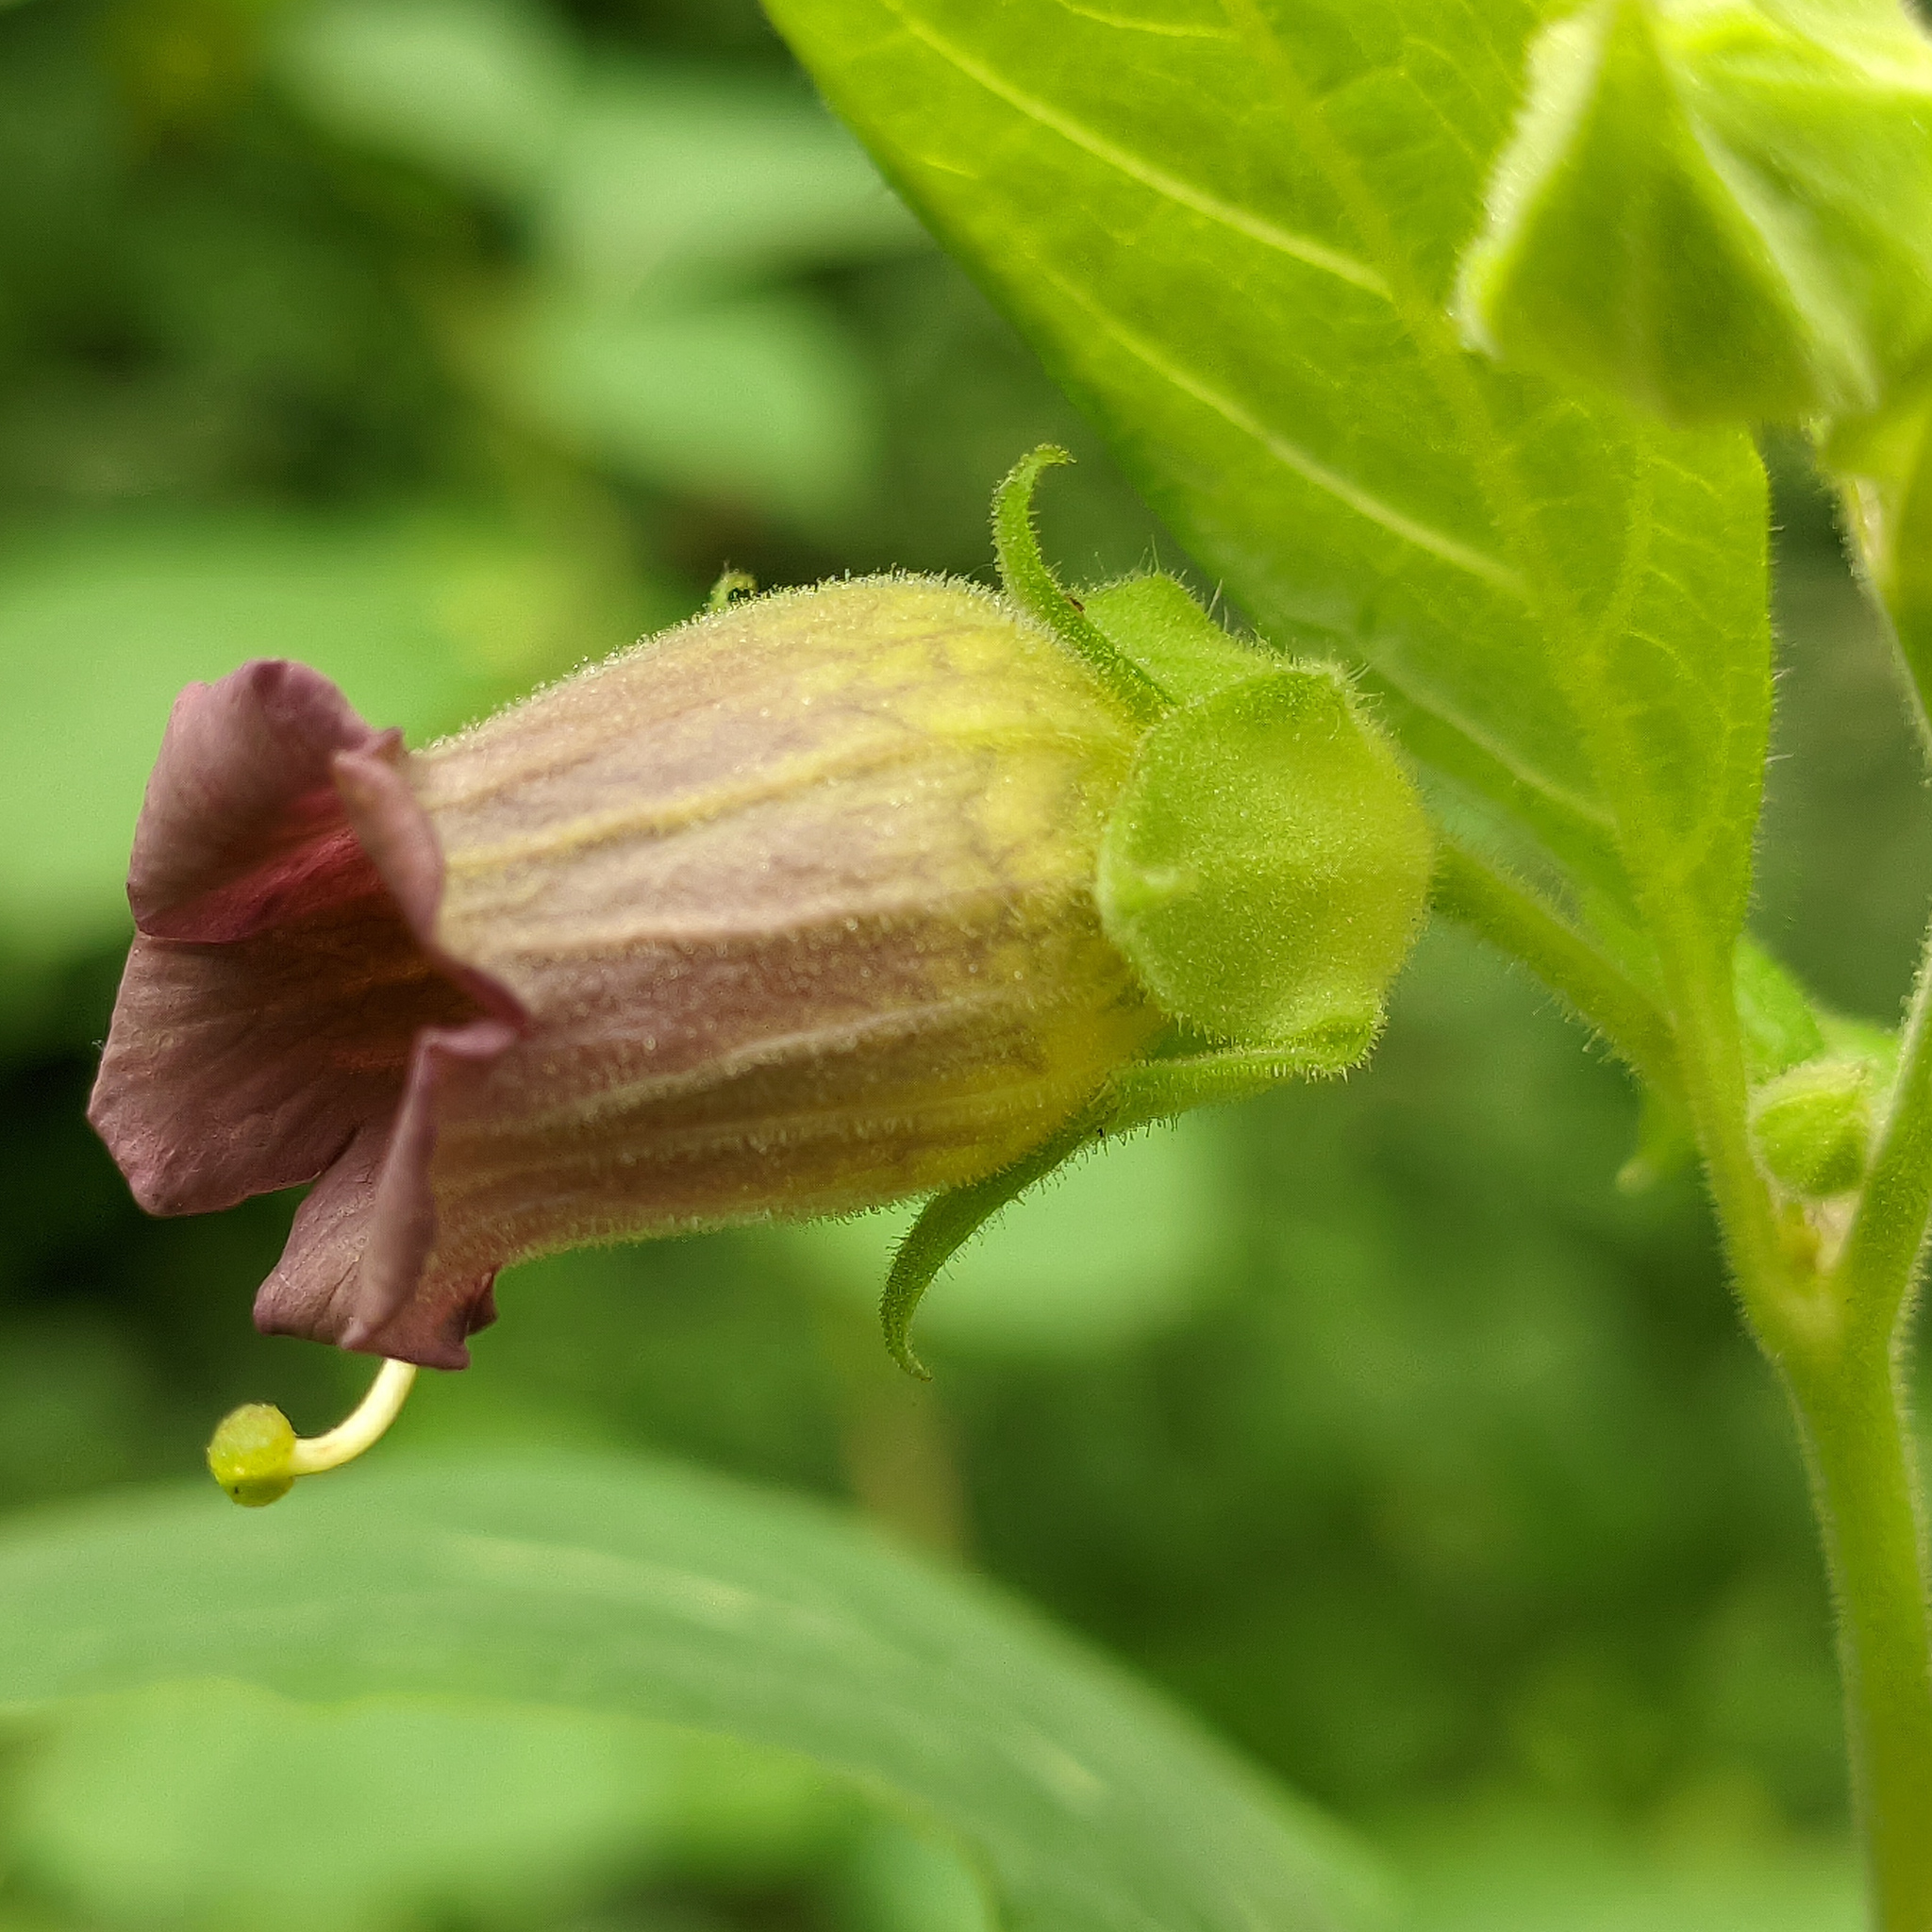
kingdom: Plantae
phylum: Tracheophyta
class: Magnoliopsida
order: Solanales
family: Solanaceae
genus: Atropa
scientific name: Atropa belladonna
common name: Deadly nightshade
